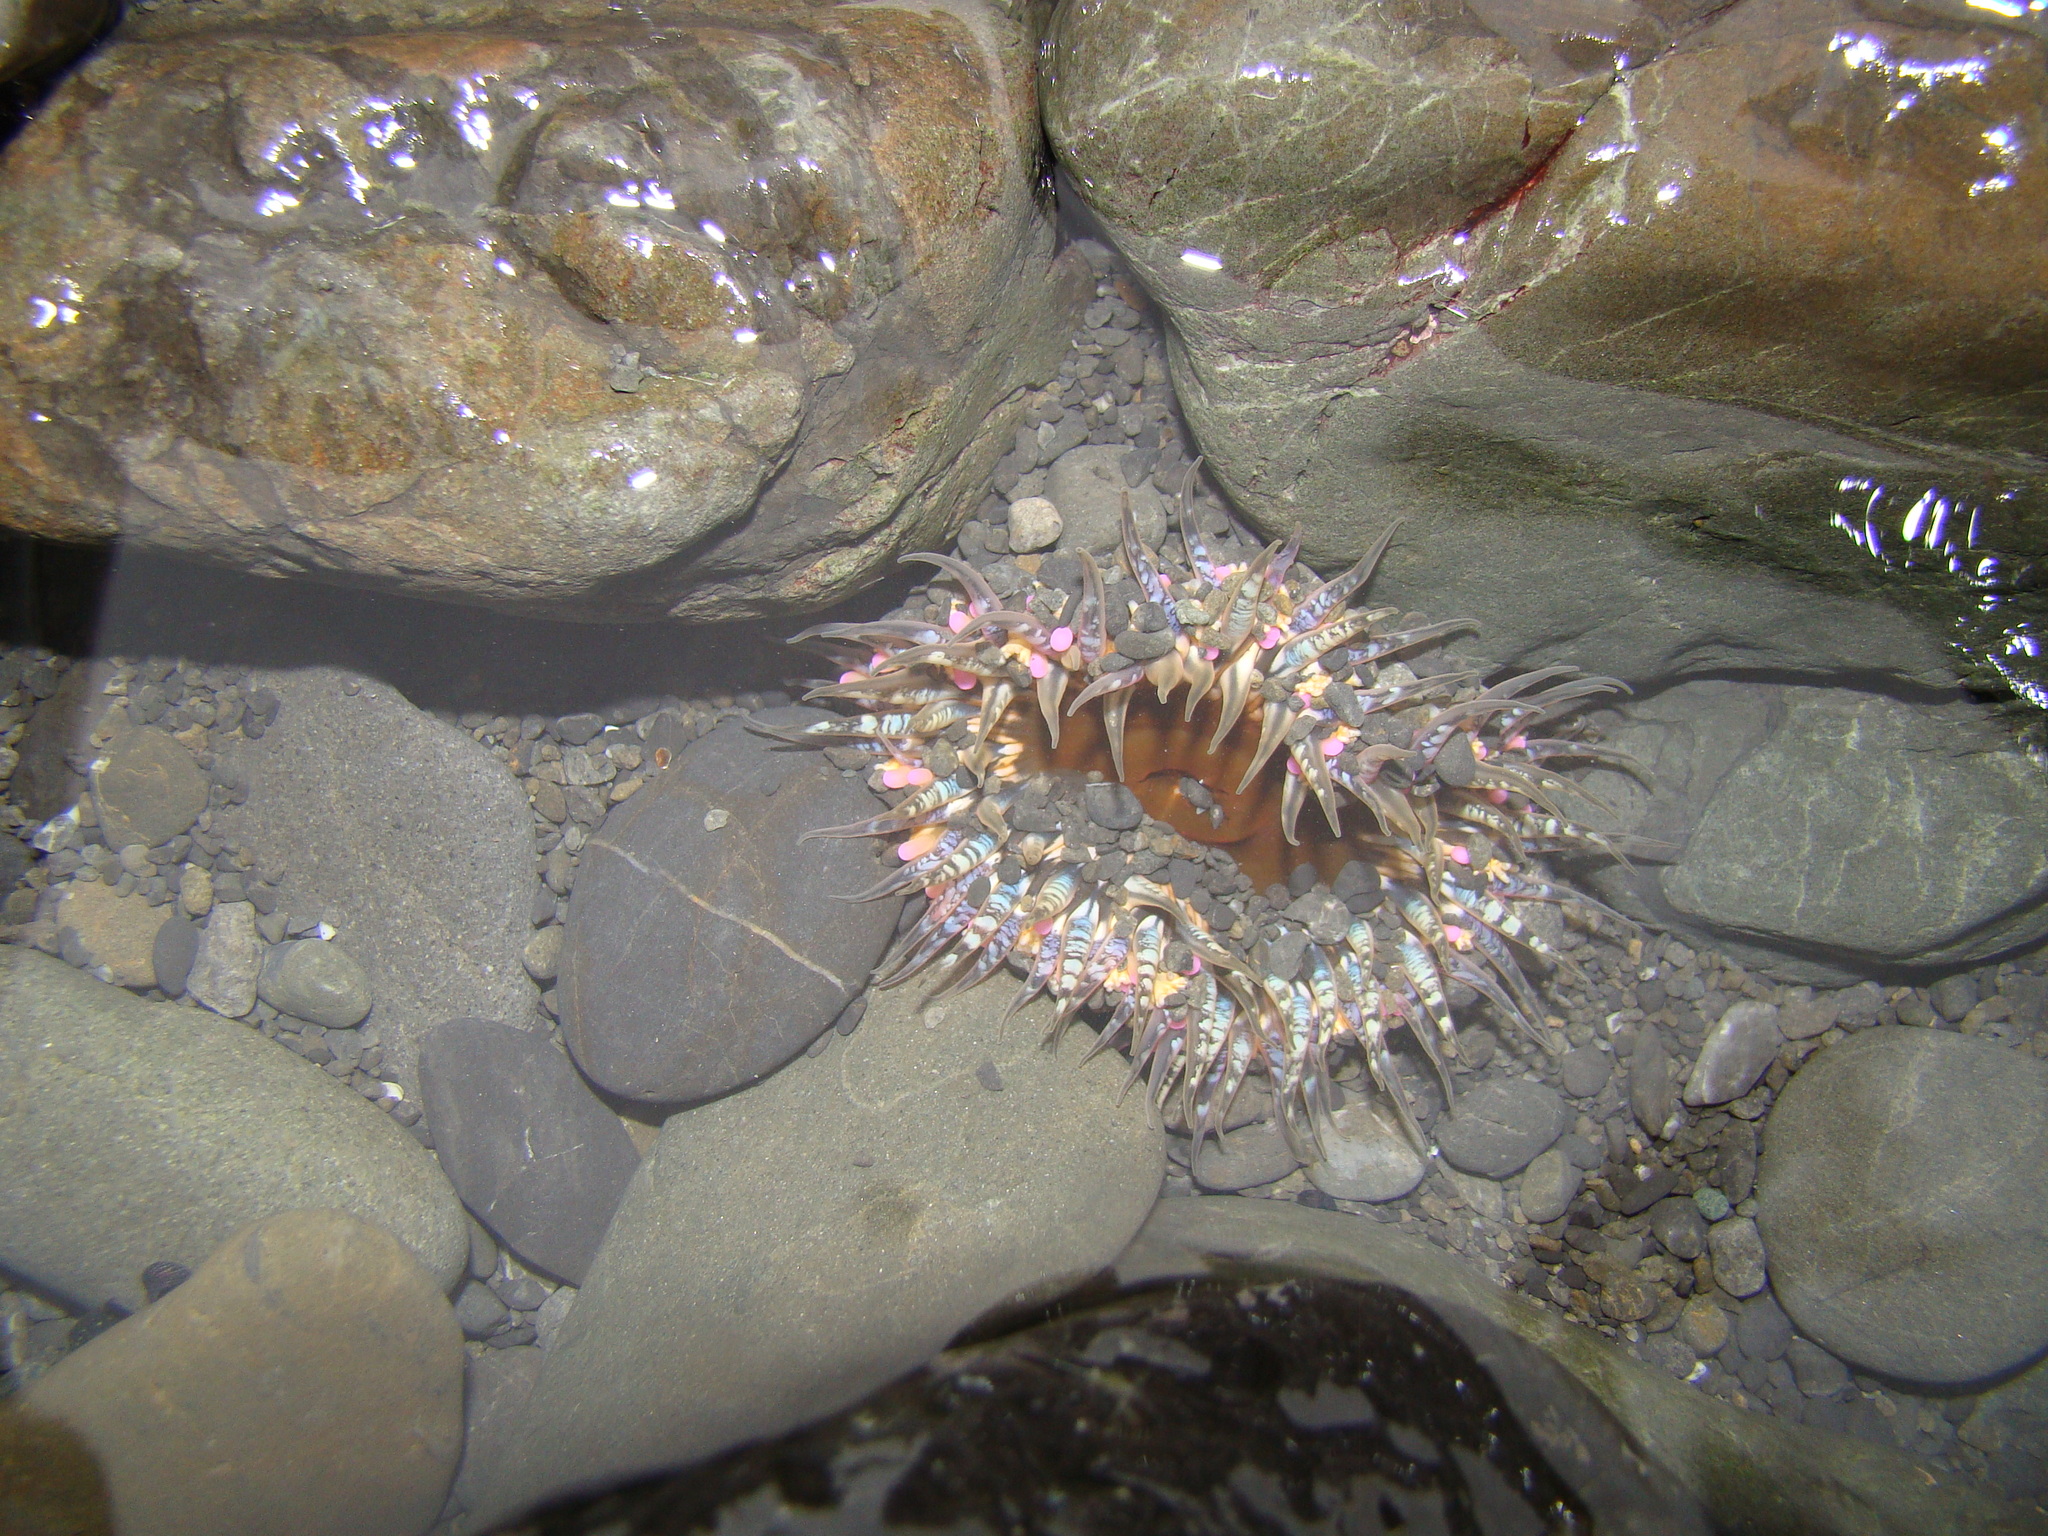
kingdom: Animalia
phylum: Cnidaria
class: Anthozoa
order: Actiniaria
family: Actiniidae
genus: Oulactis
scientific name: Oulactis muscosa
